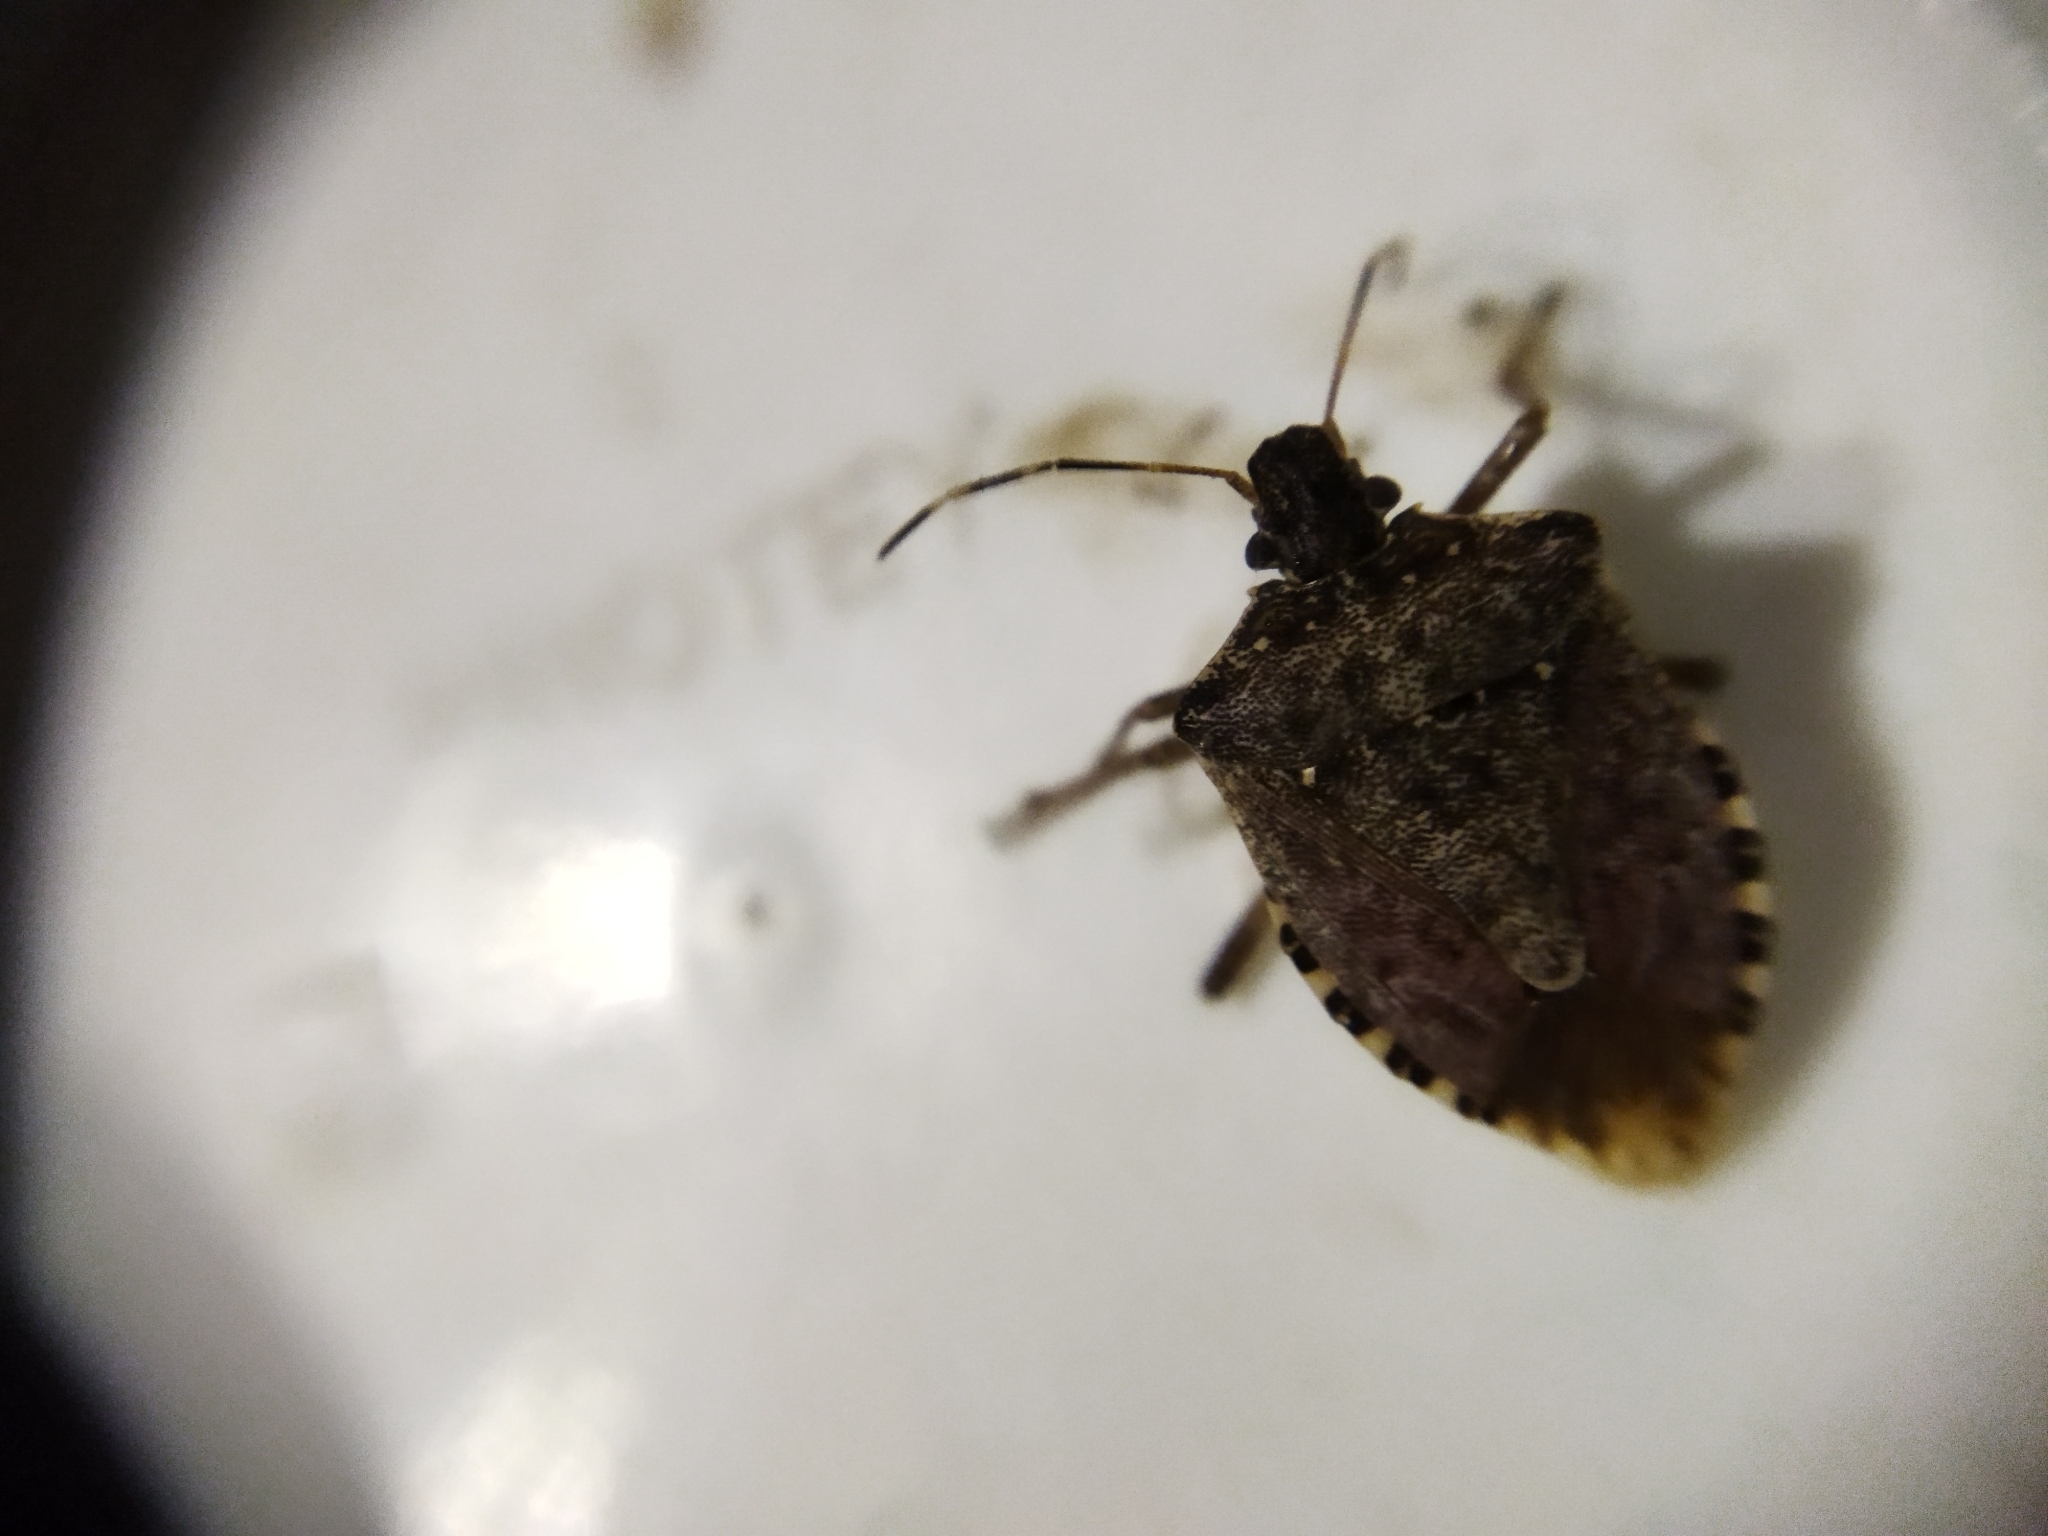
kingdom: Animalia
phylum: Arthropoda
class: Insecta
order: Hemiptera
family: Pentatomidae
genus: Halyomorpha
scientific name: Halyomorpha halys
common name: Brown marmorated stink bug
